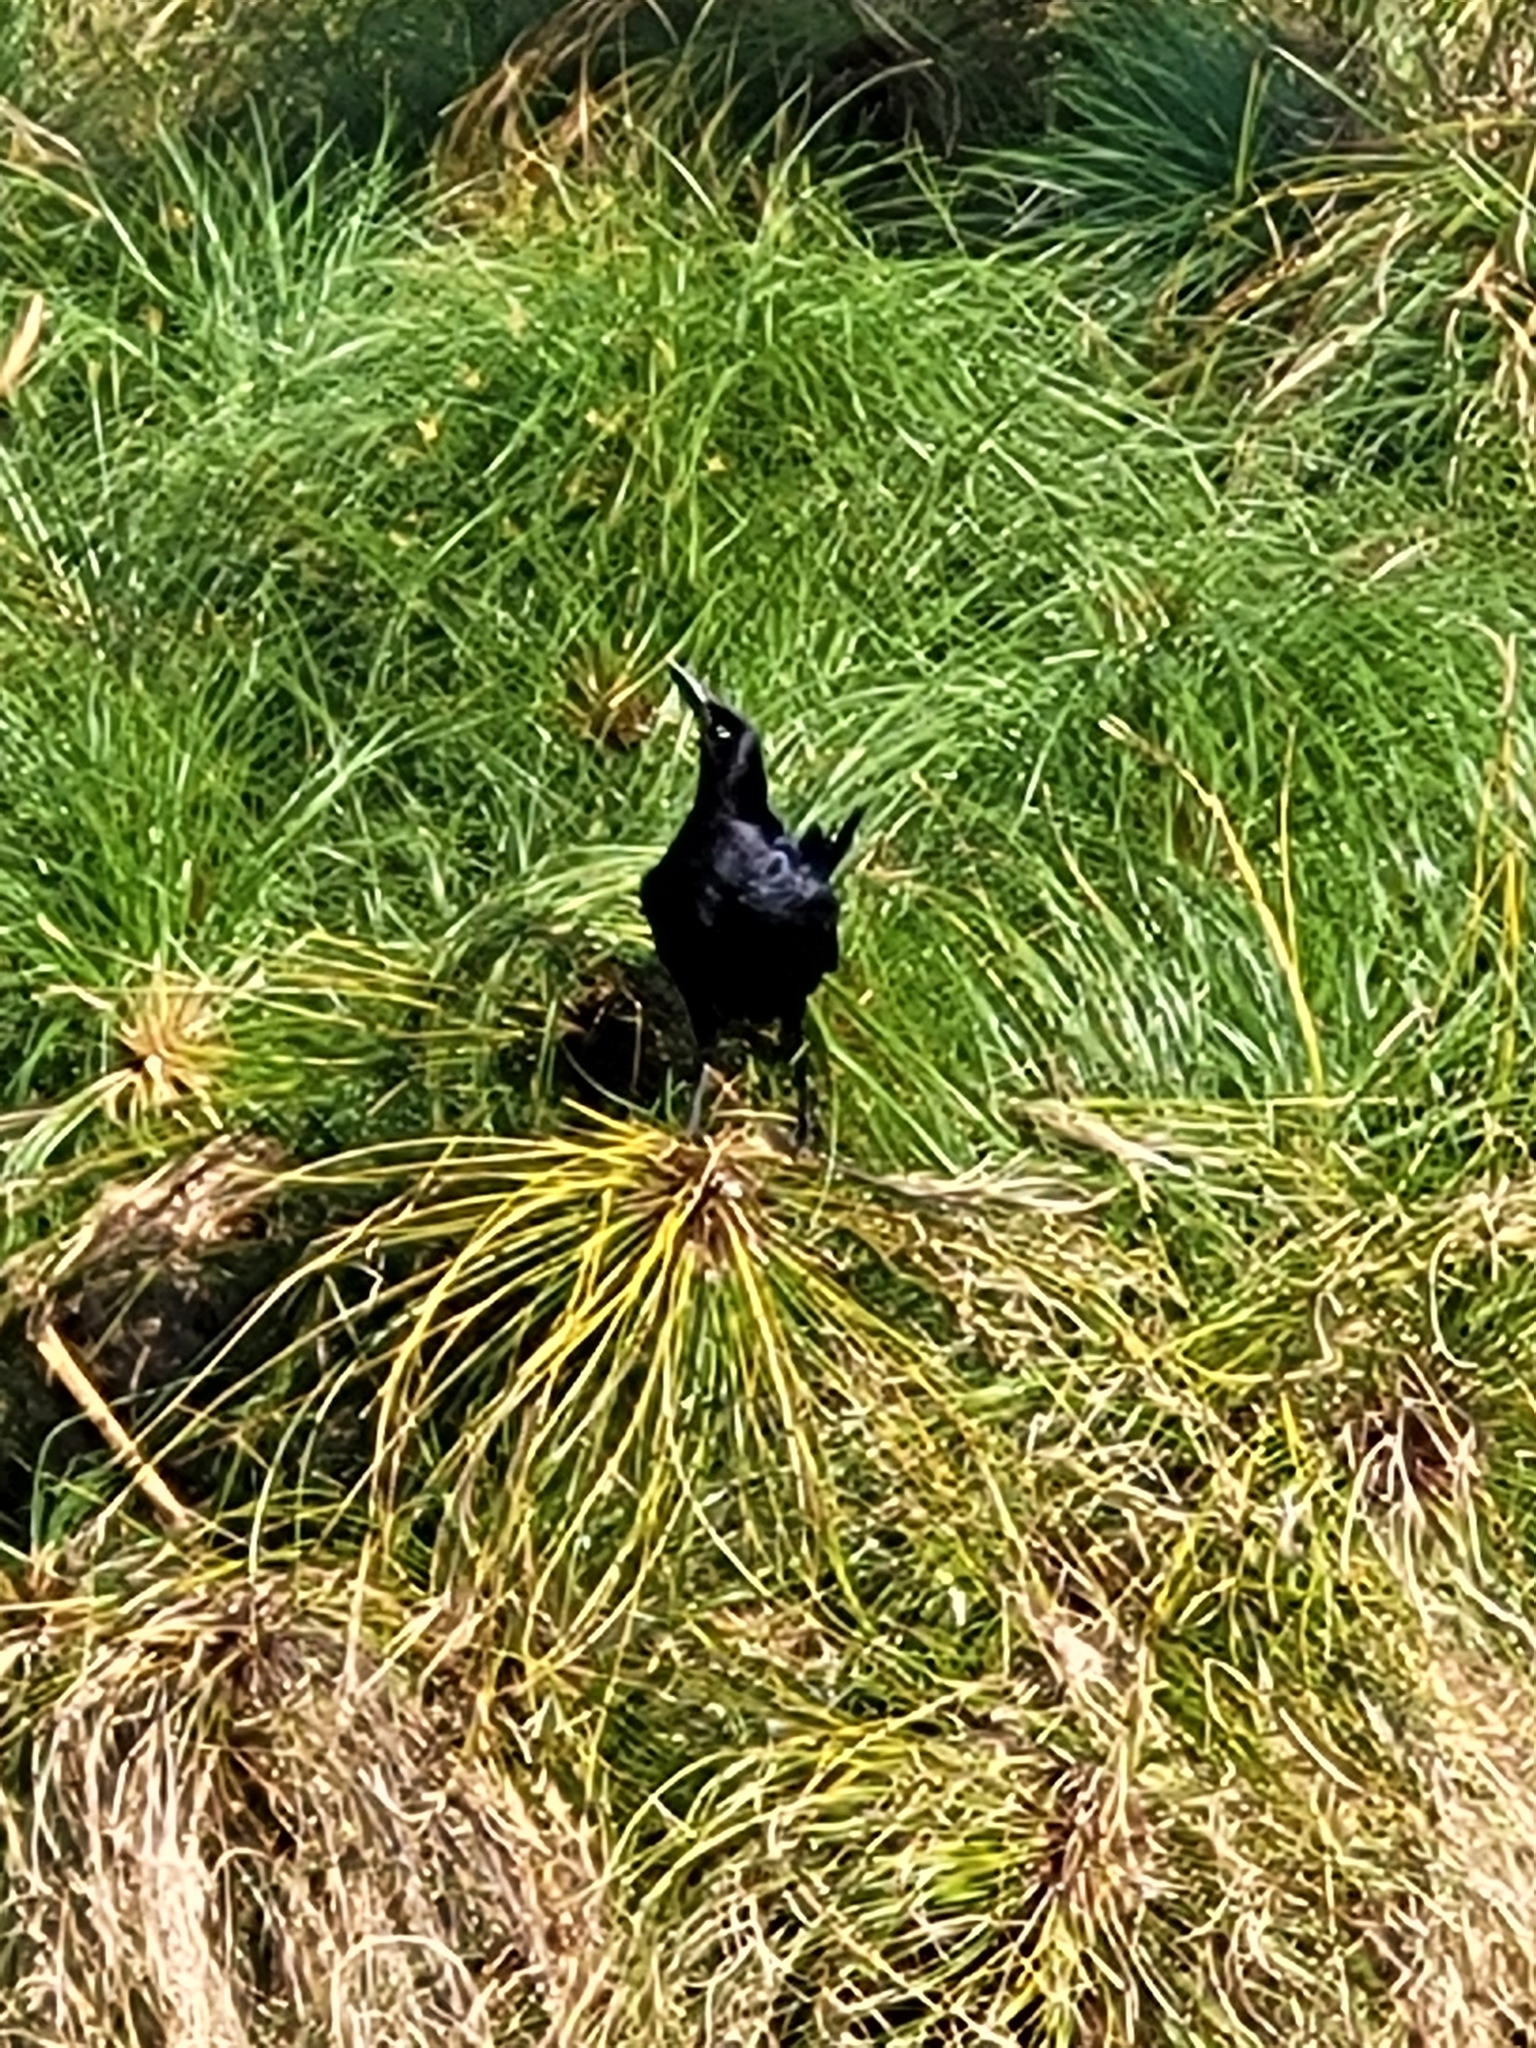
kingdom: Animalia
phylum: Chordata
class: Aves
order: Passeriformes
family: Icteridae
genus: Quiscalus
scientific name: Quiscalus mexicanus
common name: Great-tailed grackle
